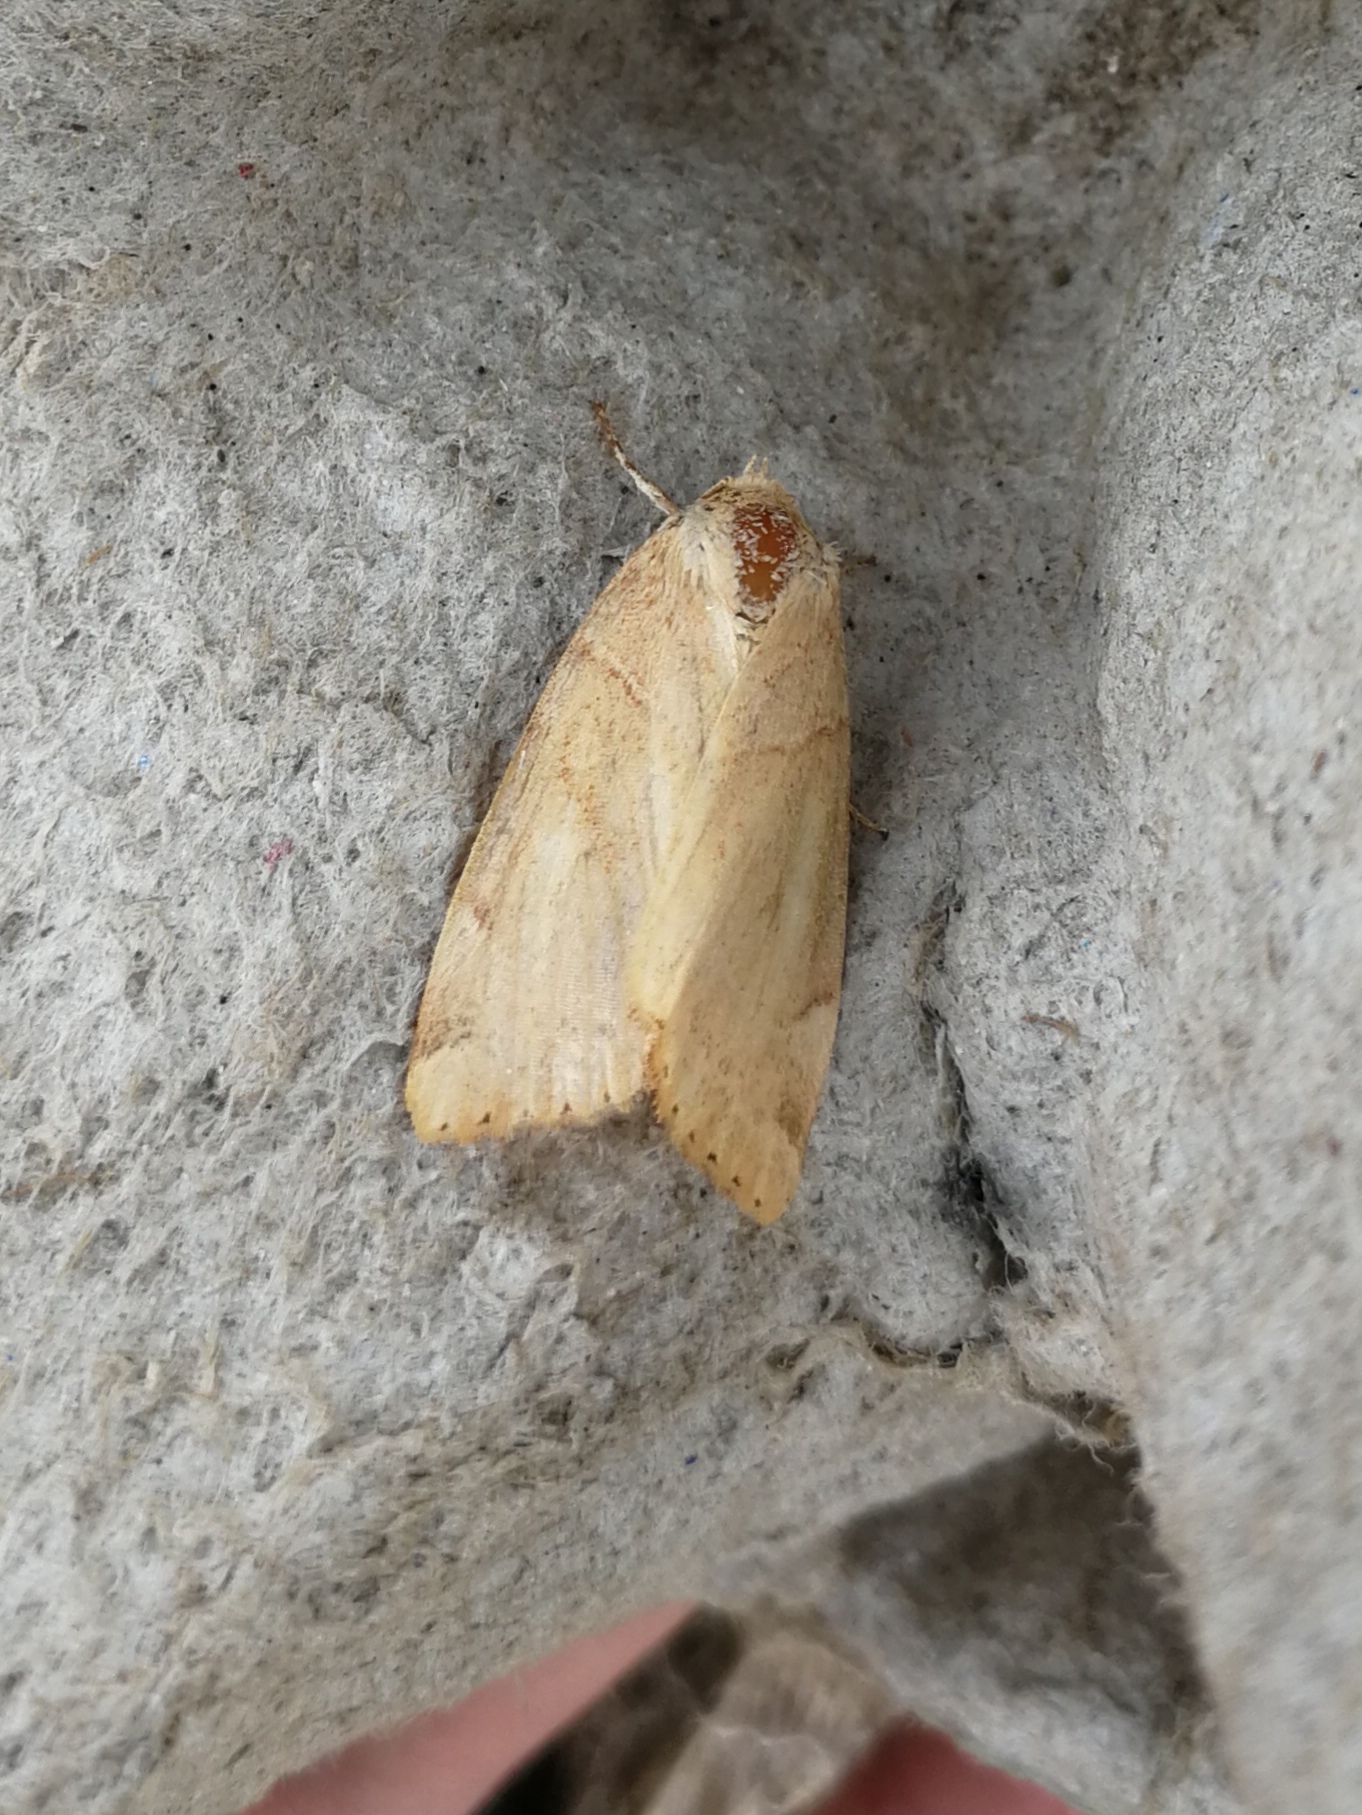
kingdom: Animalia
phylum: Arthropoda
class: Insecta
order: Lepidoptera
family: Noctuidae
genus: Cosmia
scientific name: Cosmia trapezina
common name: Dun-bar
